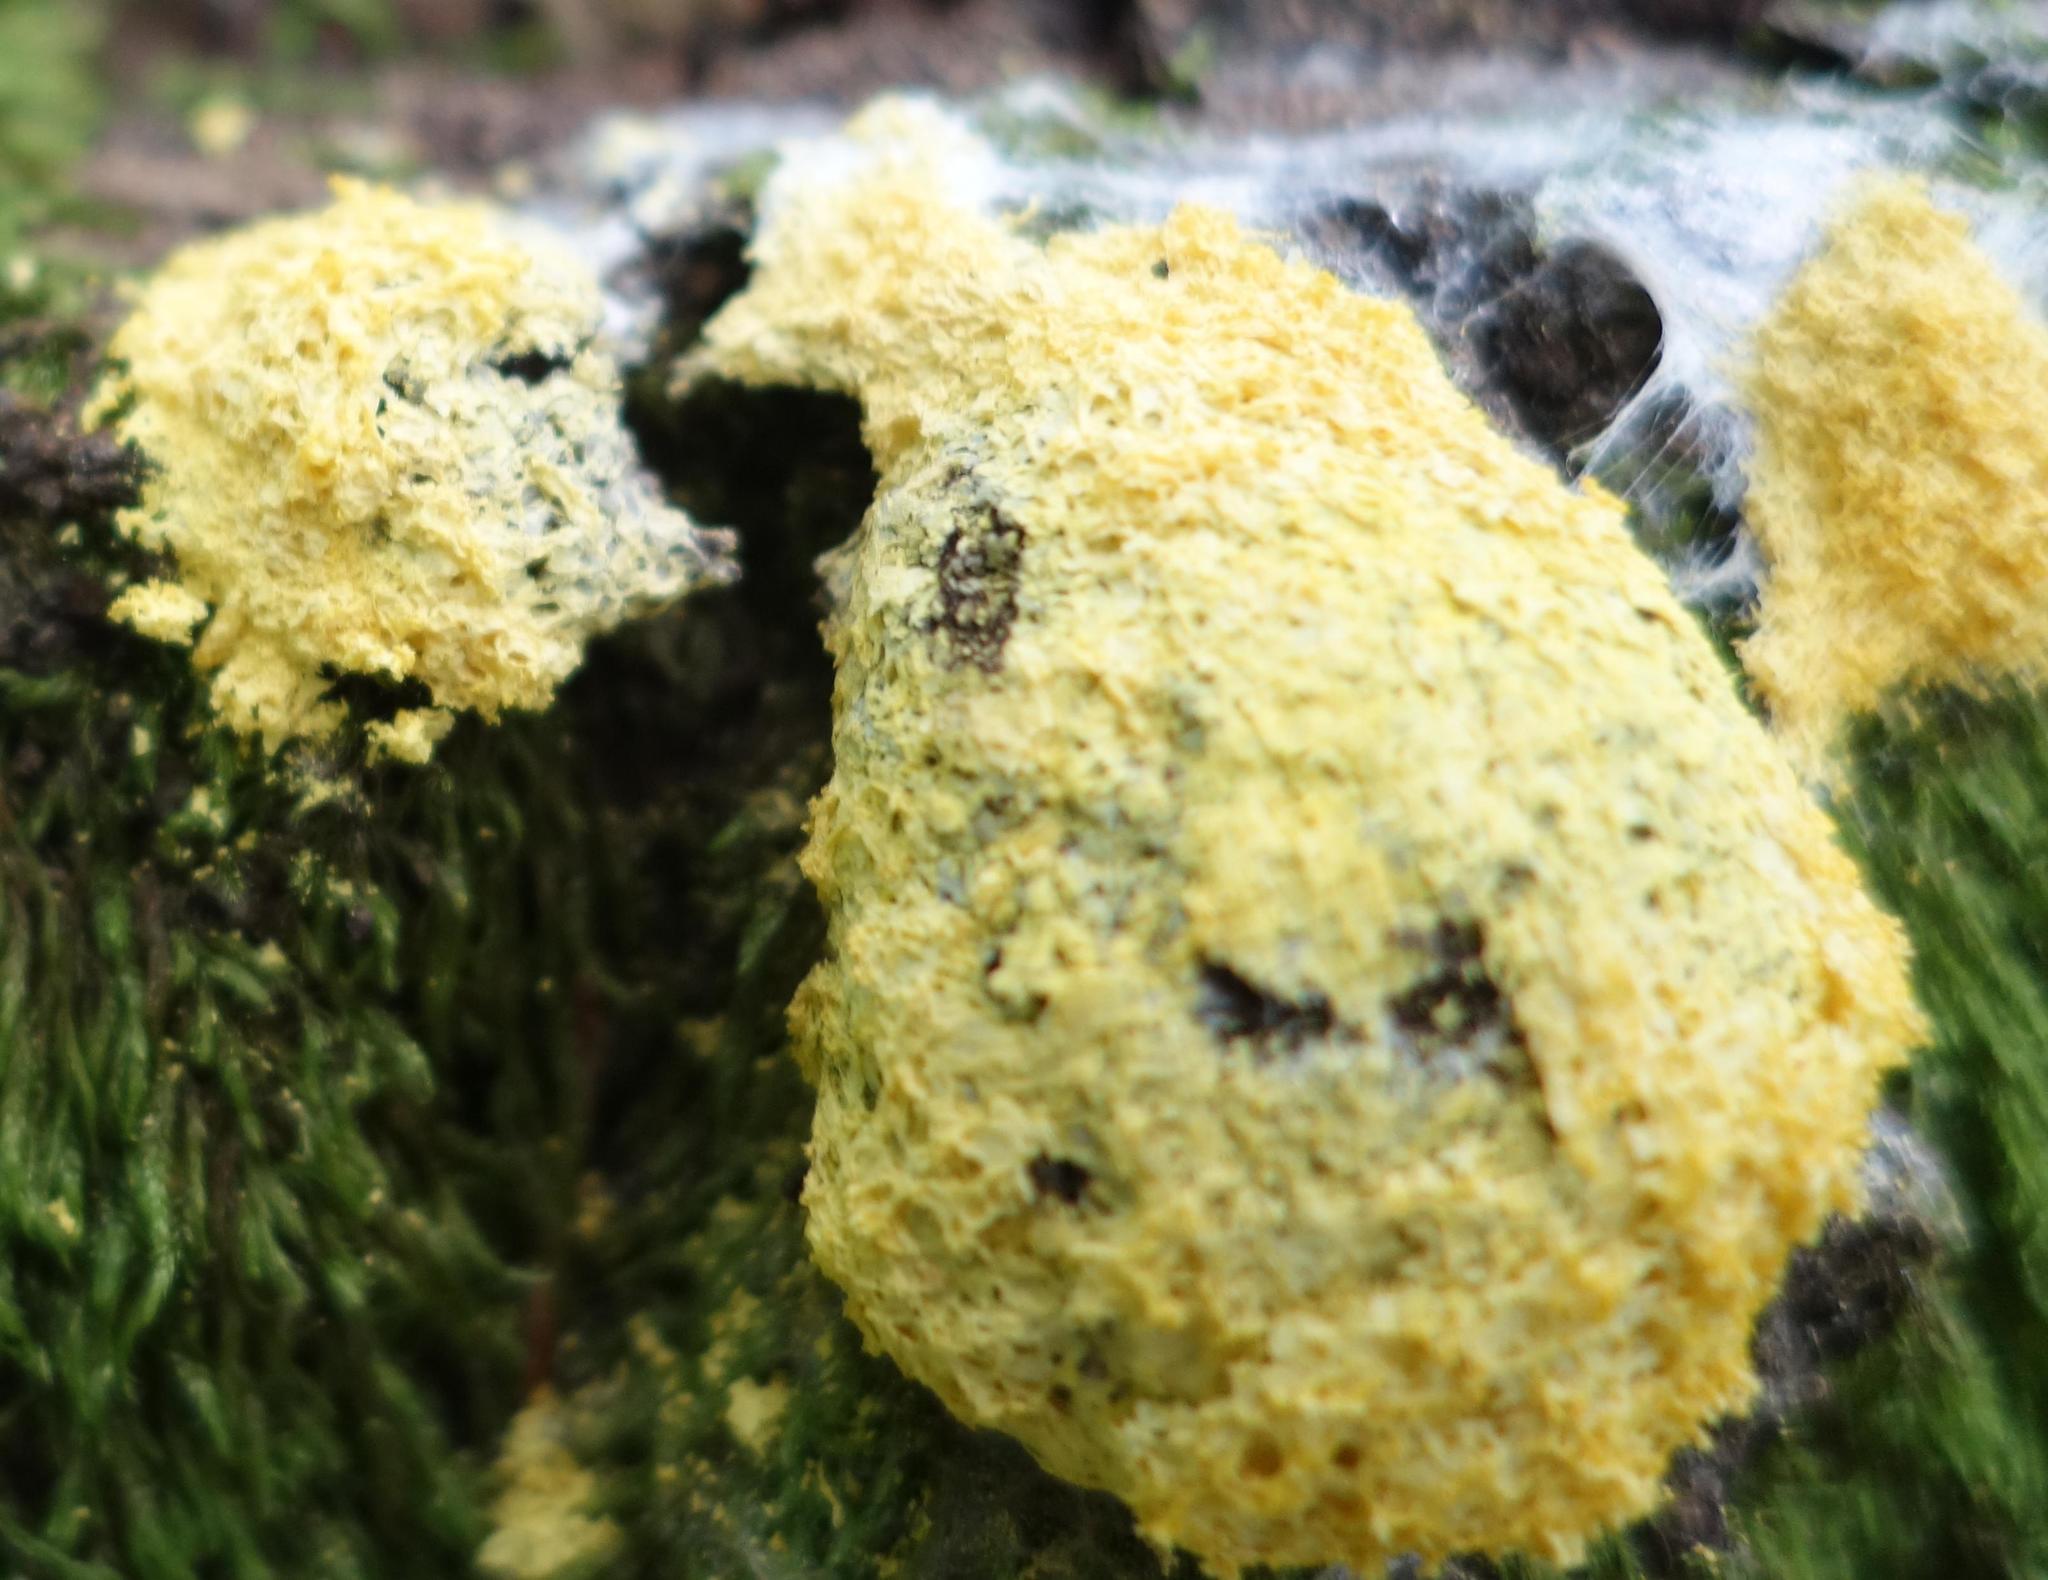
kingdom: Protozoa
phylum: Mycetozoa
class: Myxomycetes
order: Physarales
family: Physaraceae
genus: Fuligo
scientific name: Fuligo septica
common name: Dog vomit slime mold
